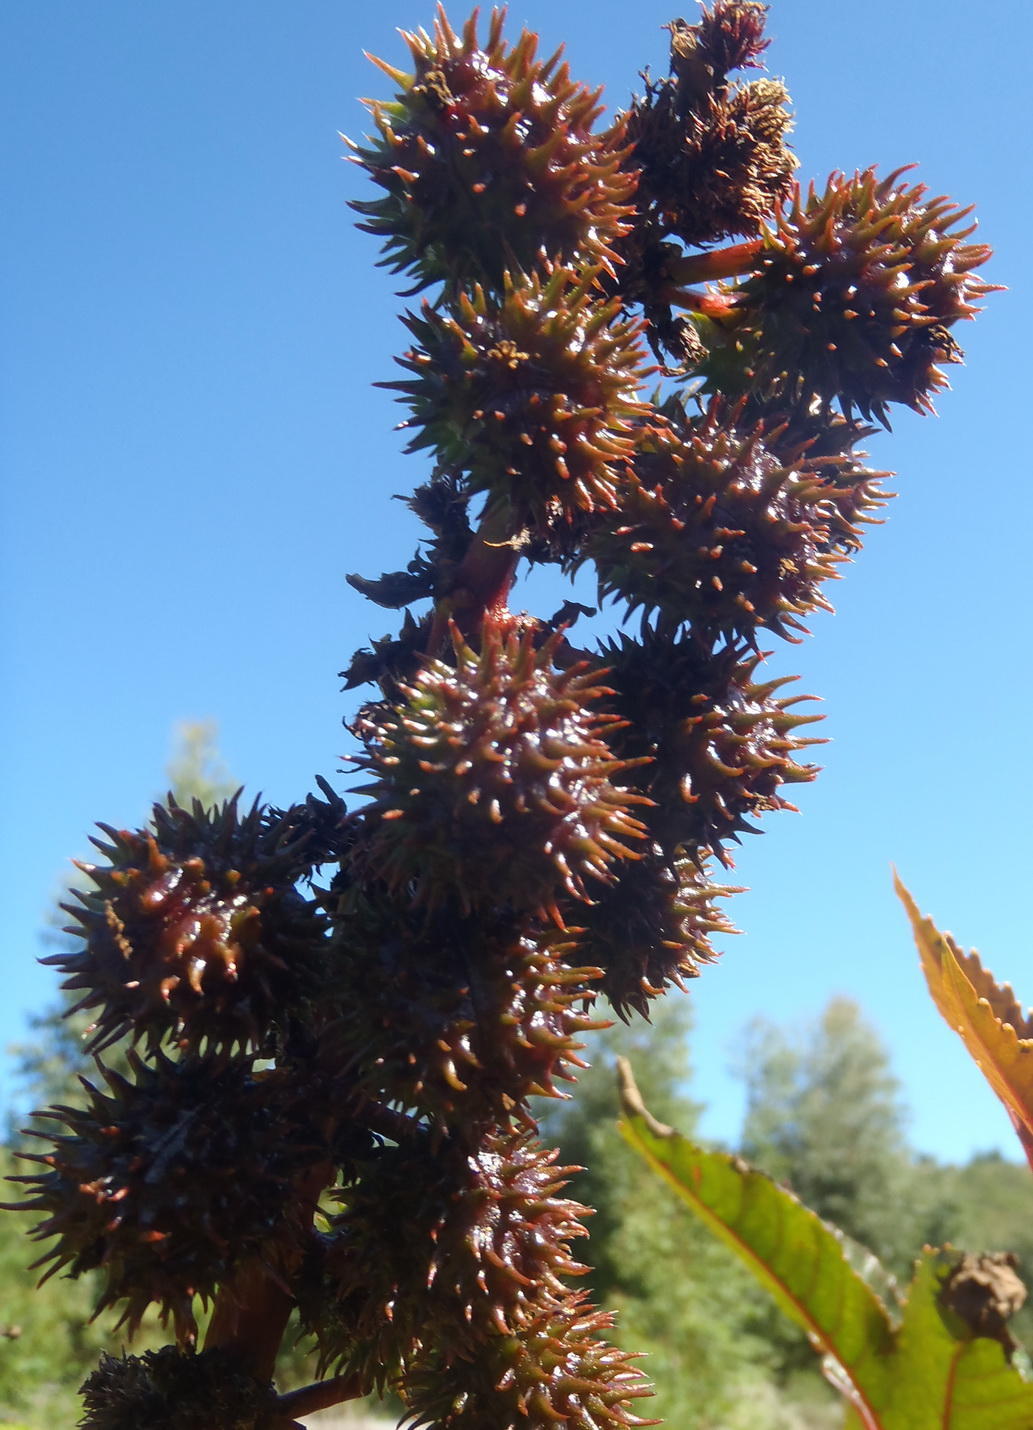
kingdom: Plantae
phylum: Tracheophyta
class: Magnoliopsida
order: Malpighiales
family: Euphorbiaceae
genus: Ricinus
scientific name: Ricinus communis
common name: Castor-oil-plant
